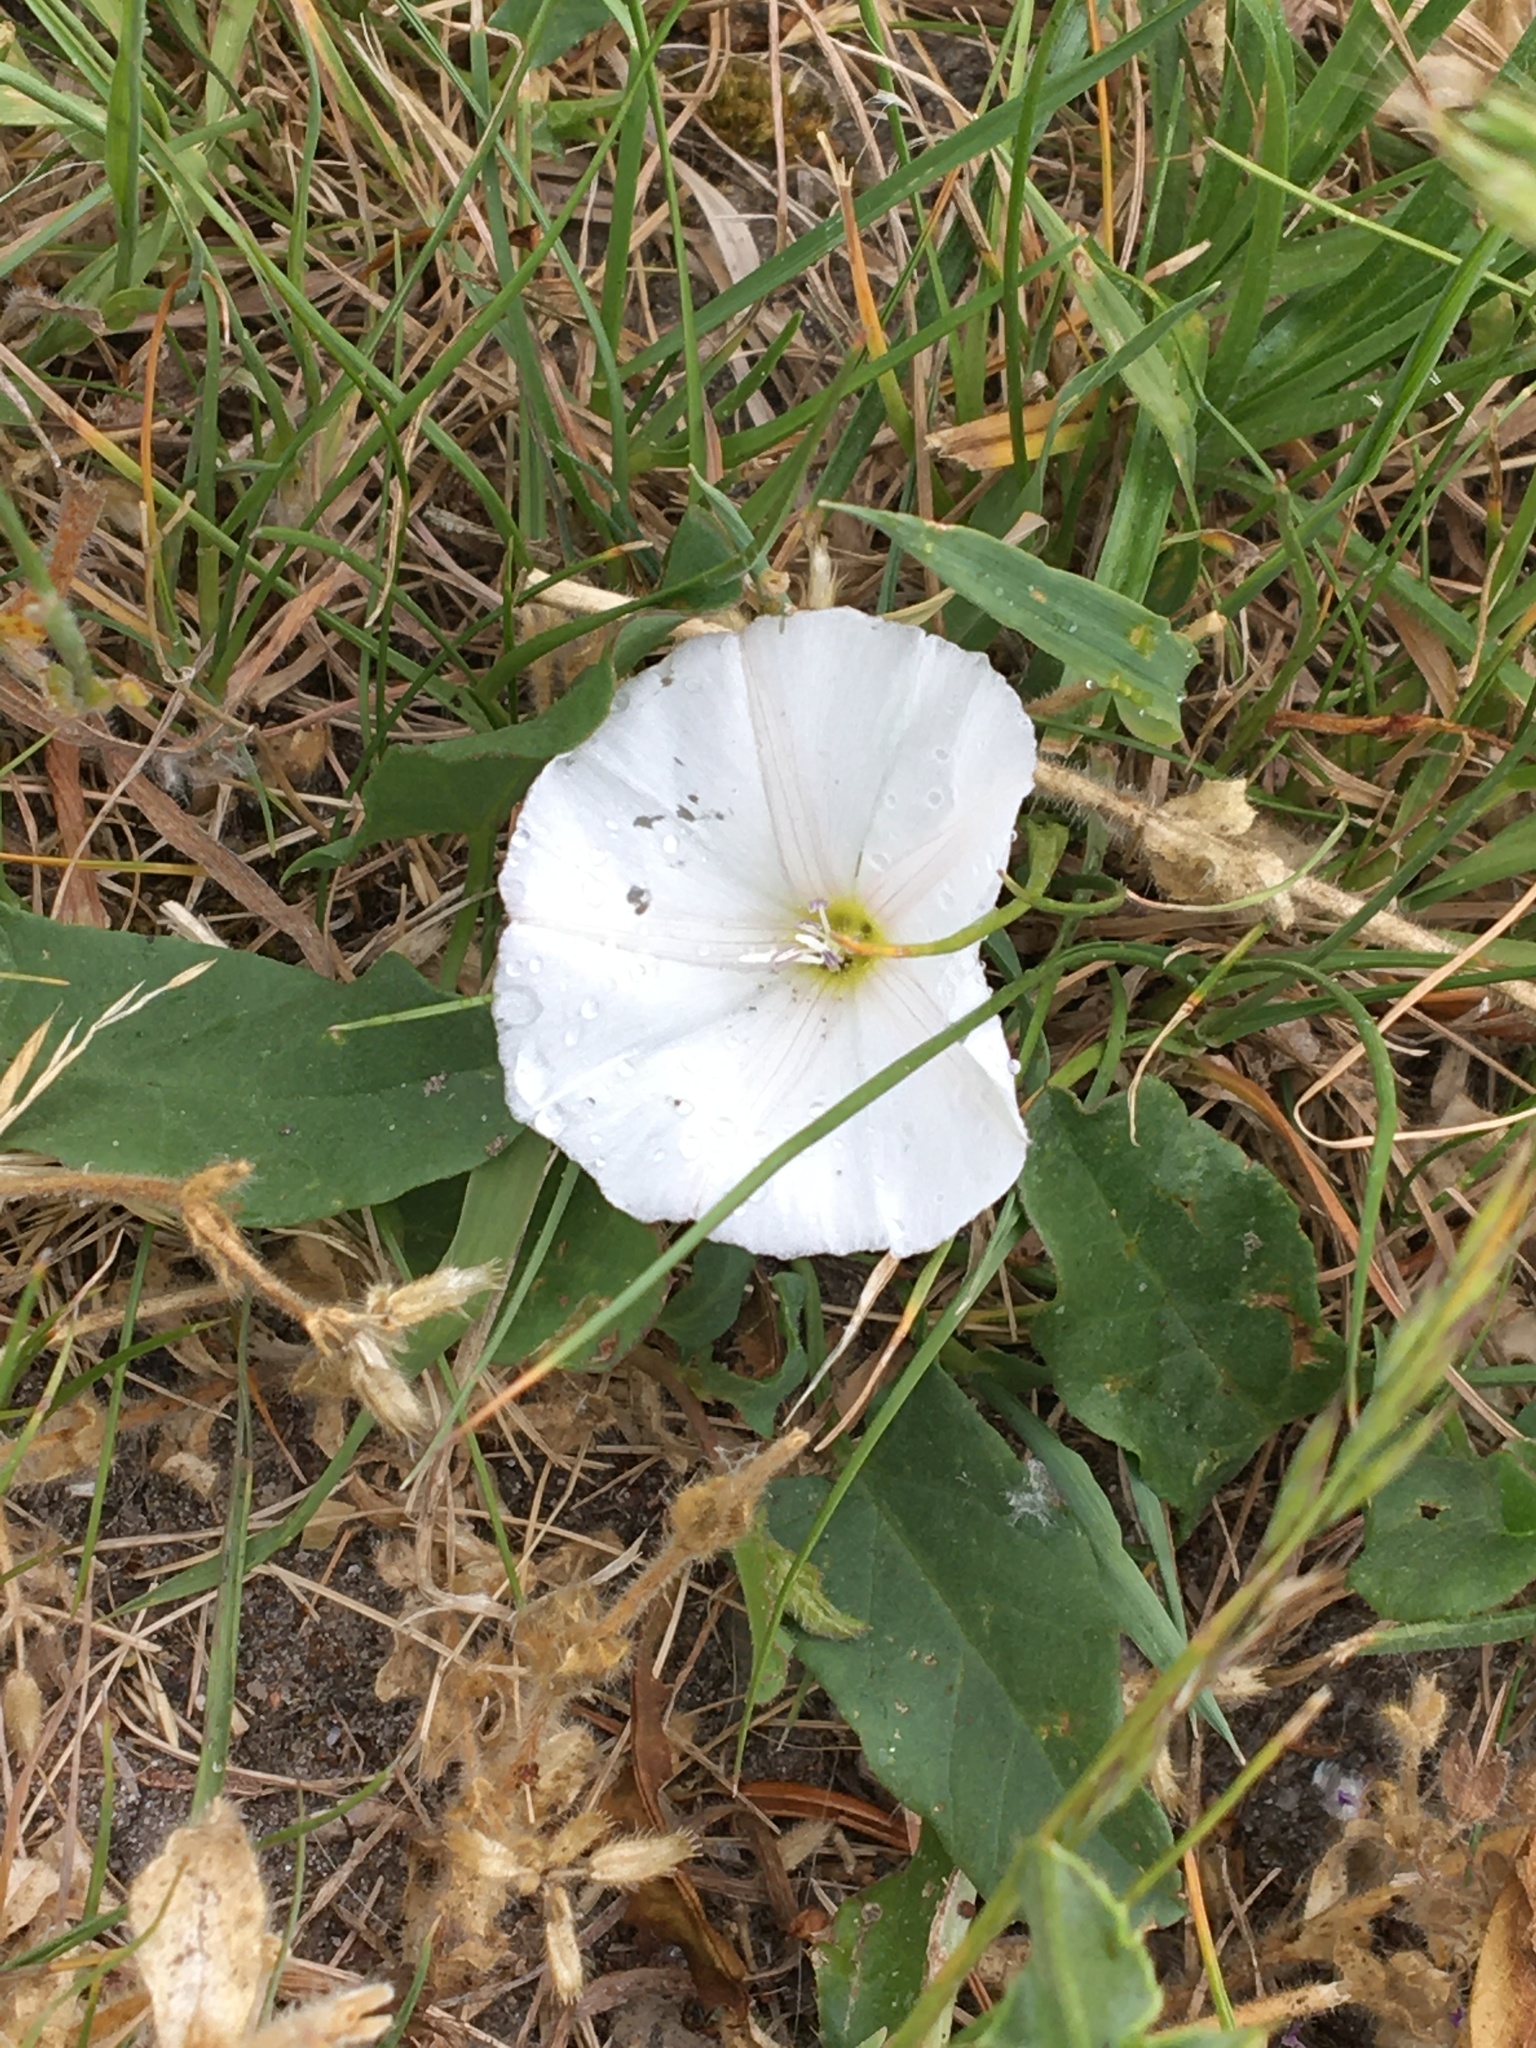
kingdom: Plantae
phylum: Tracheophyta
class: Magnoliopsida
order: Solanales
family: Convolvulaceae
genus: Convolvulus
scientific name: Convolvulus arvensis
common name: Field bindweed
